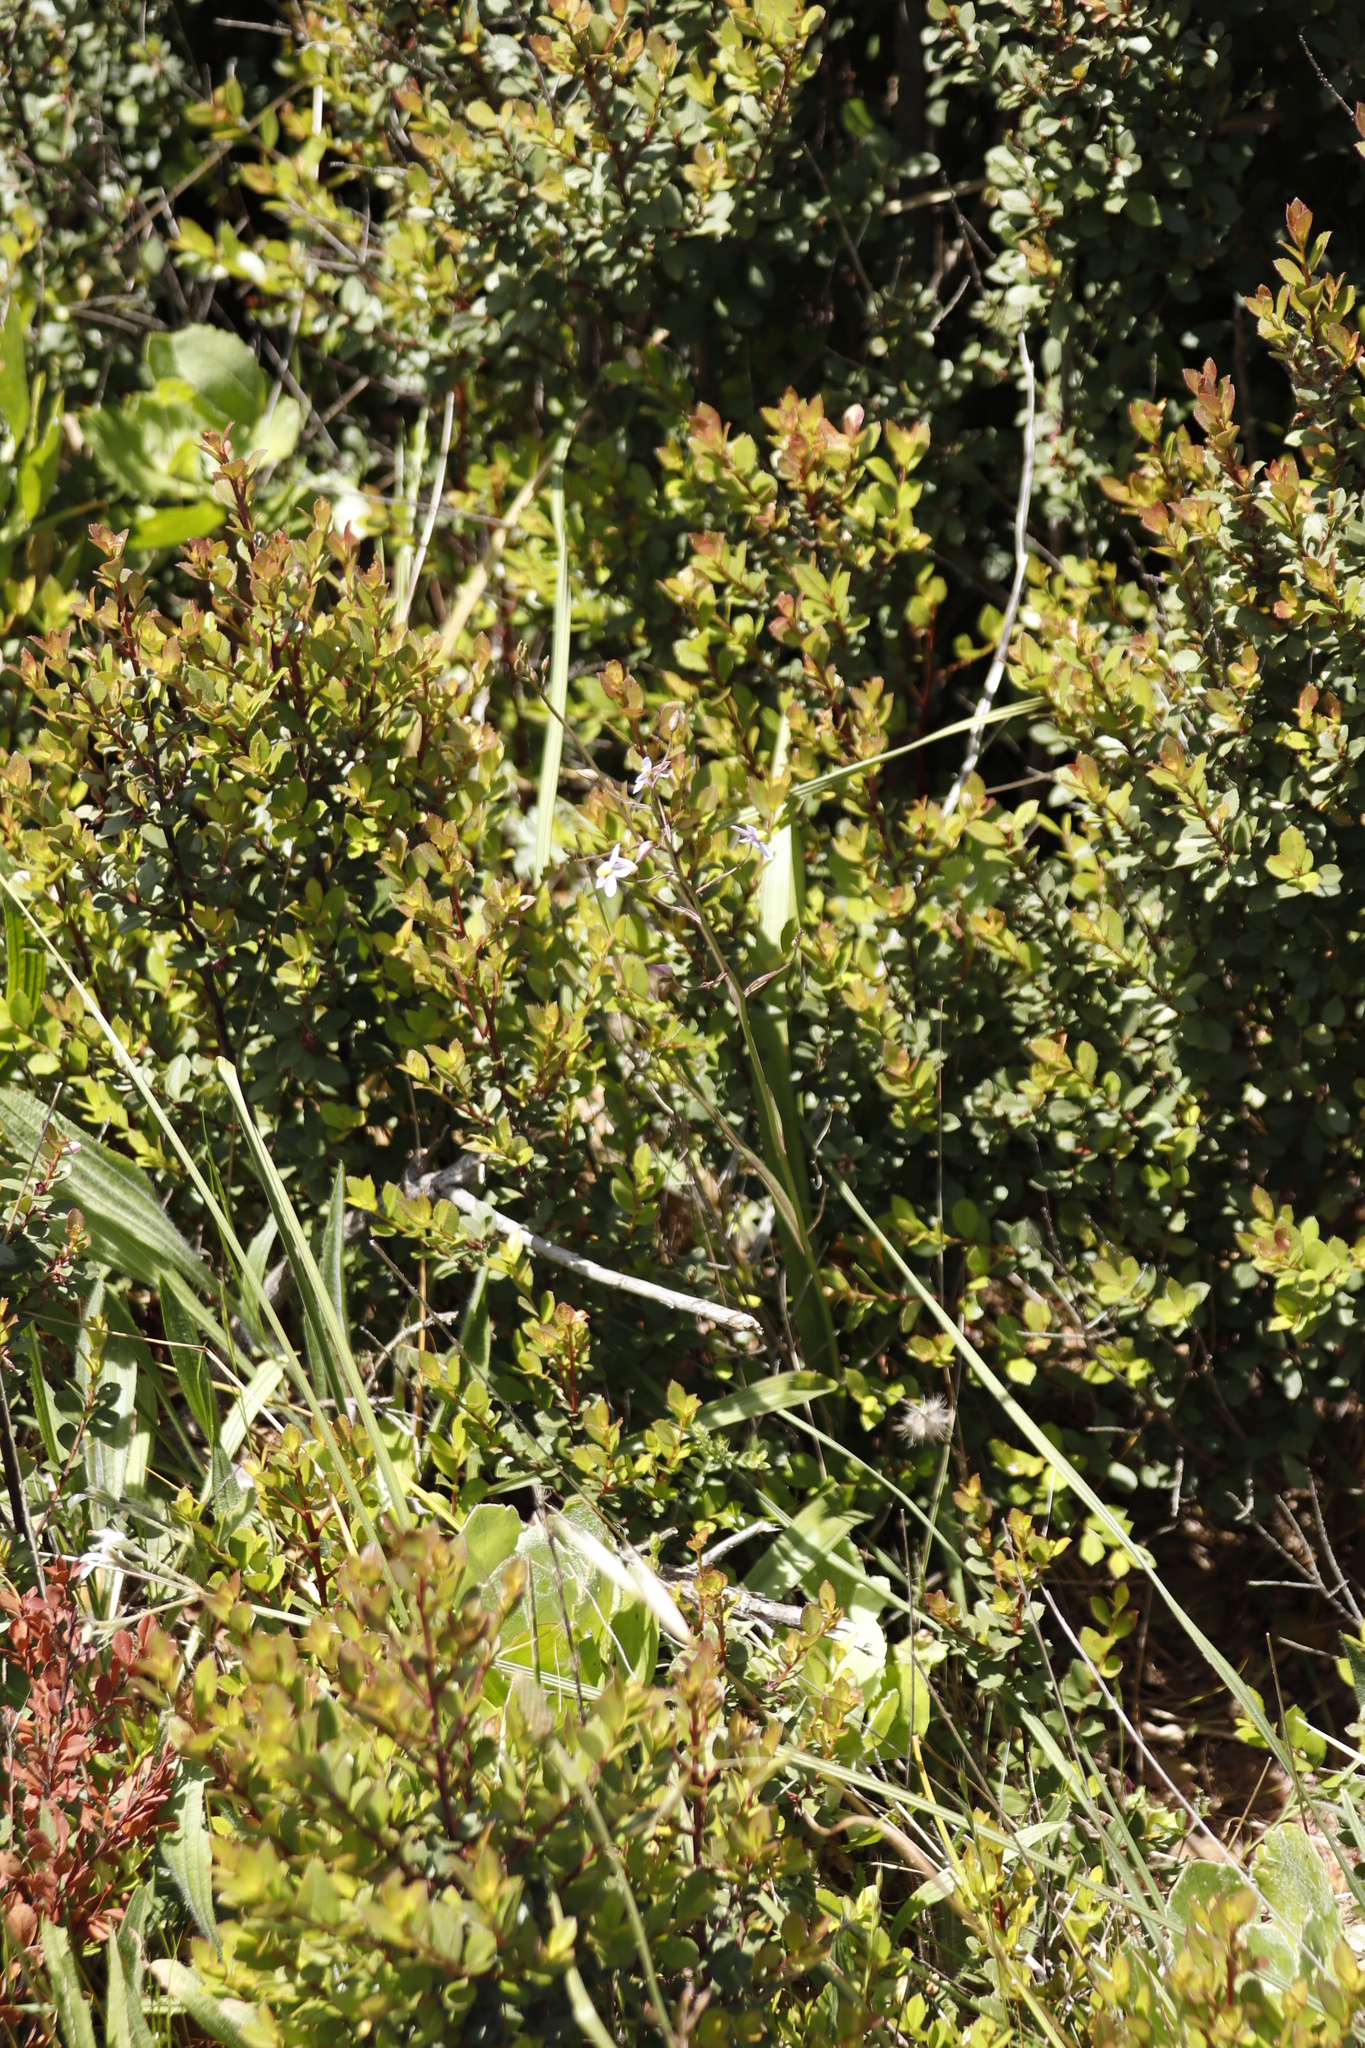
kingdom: Plantae
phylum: Tracheophyta
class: Liliopsida
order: Asparagales
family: Tecophilaeaceae
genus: Cyanella
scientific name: Cyanella hyacinthoides
